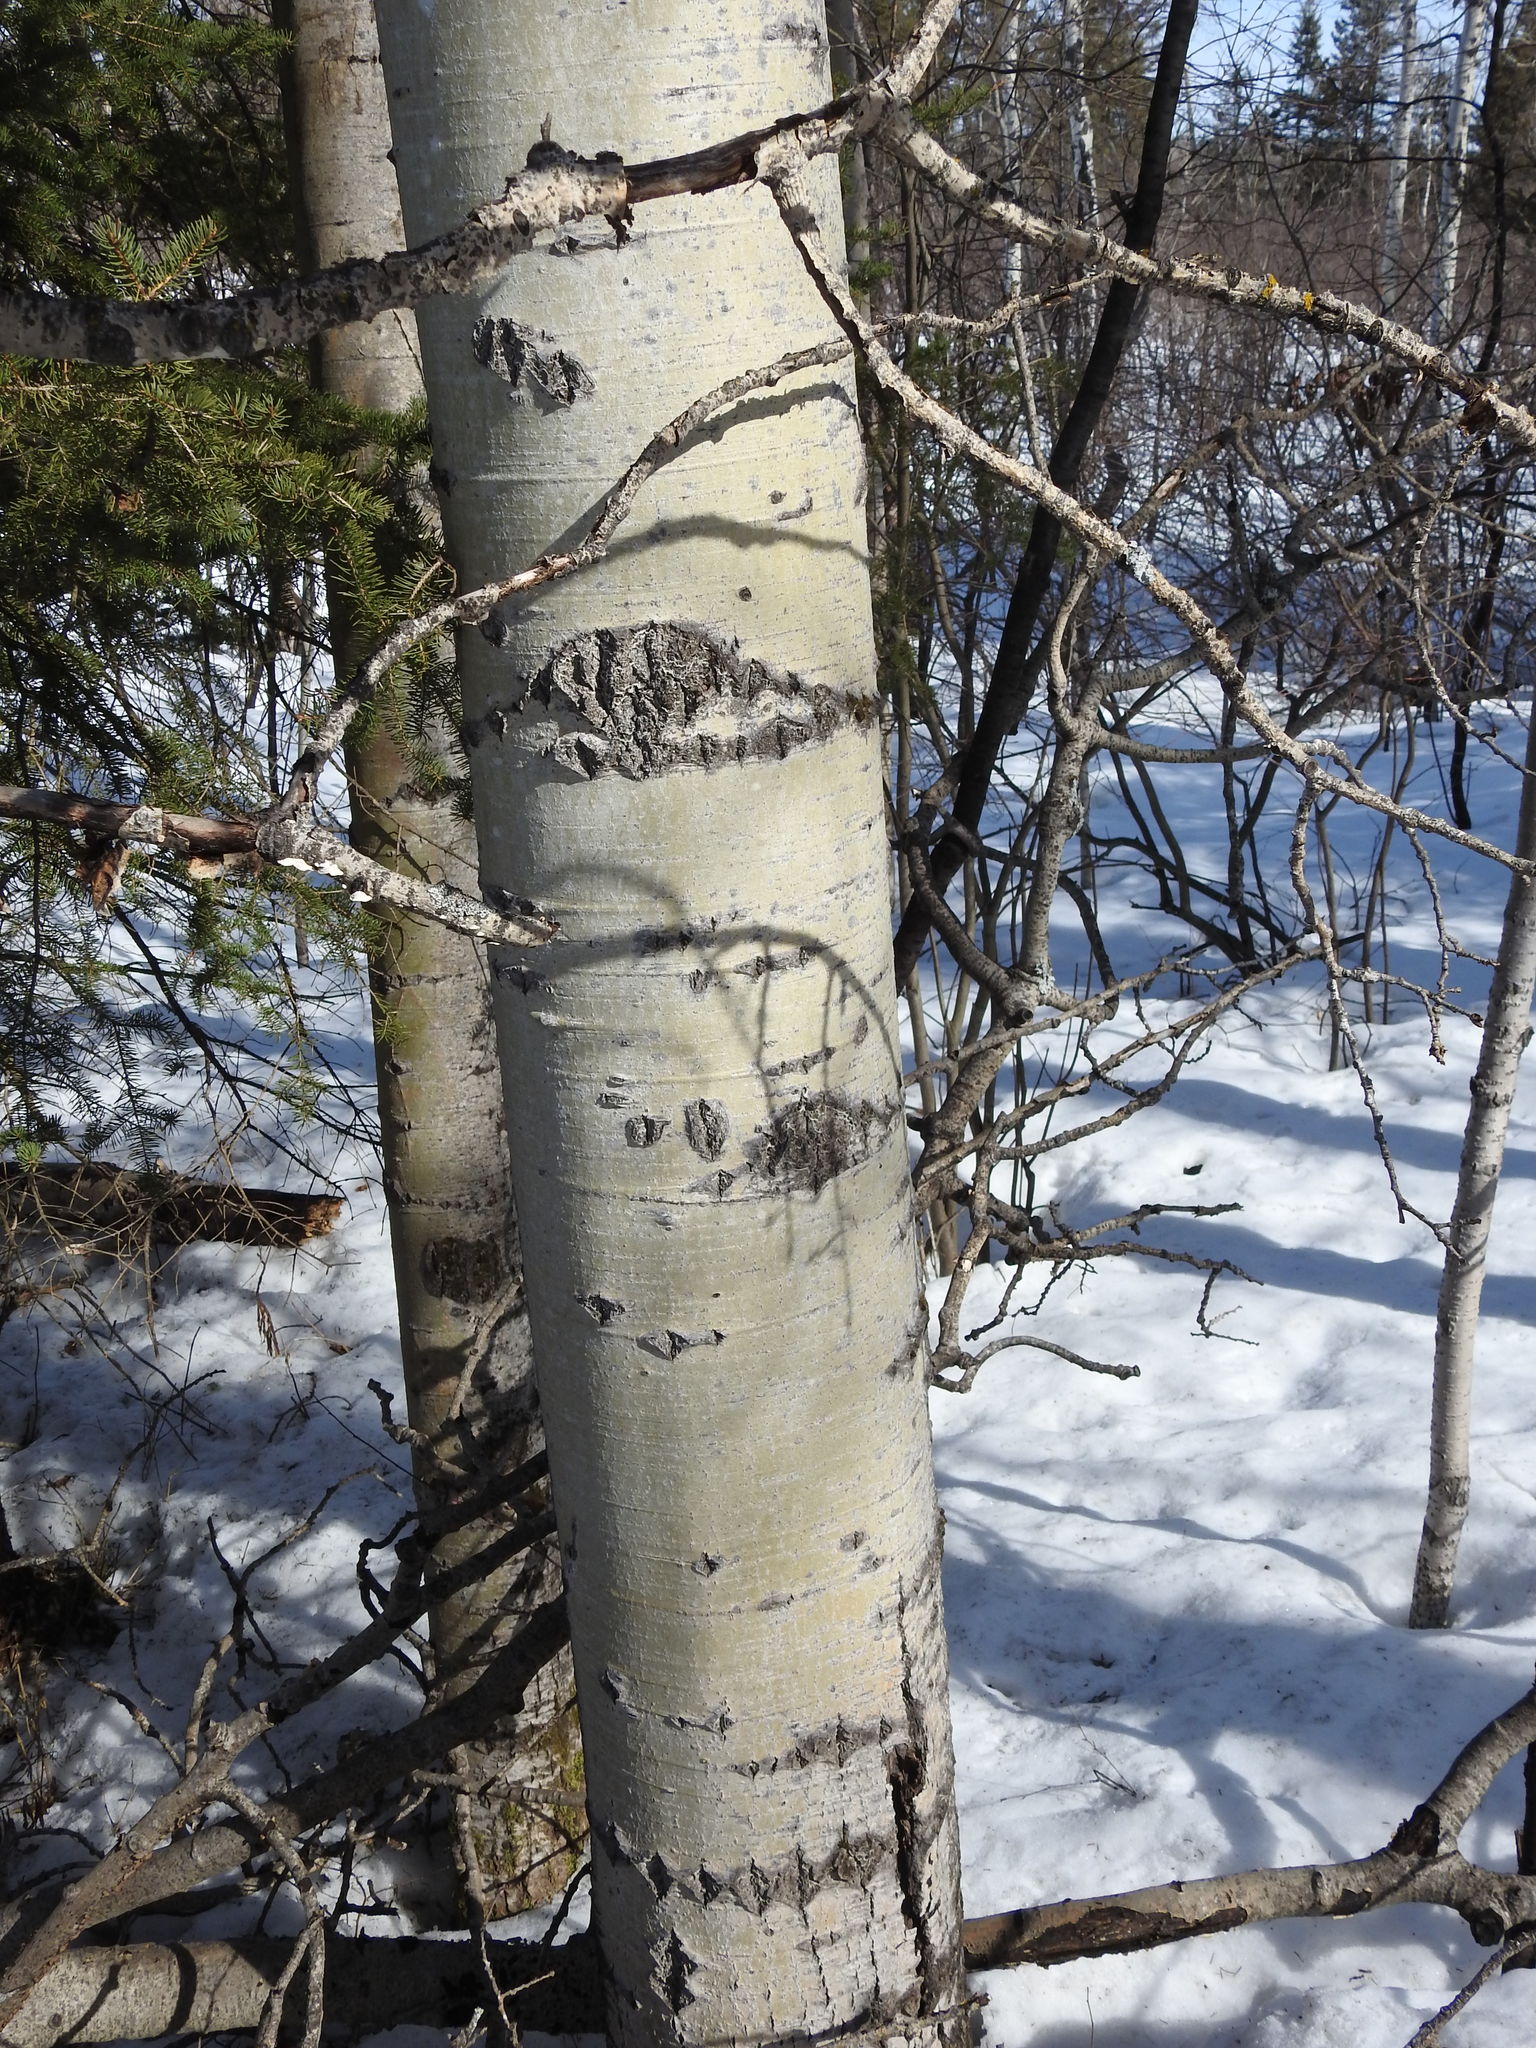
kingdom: Plantae
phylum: Tracheophyta
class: Magnoliopsida
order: Malpighiales
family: Salicaceae
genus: Populus
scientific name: Populus tremuloides
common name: Quaking aspen
